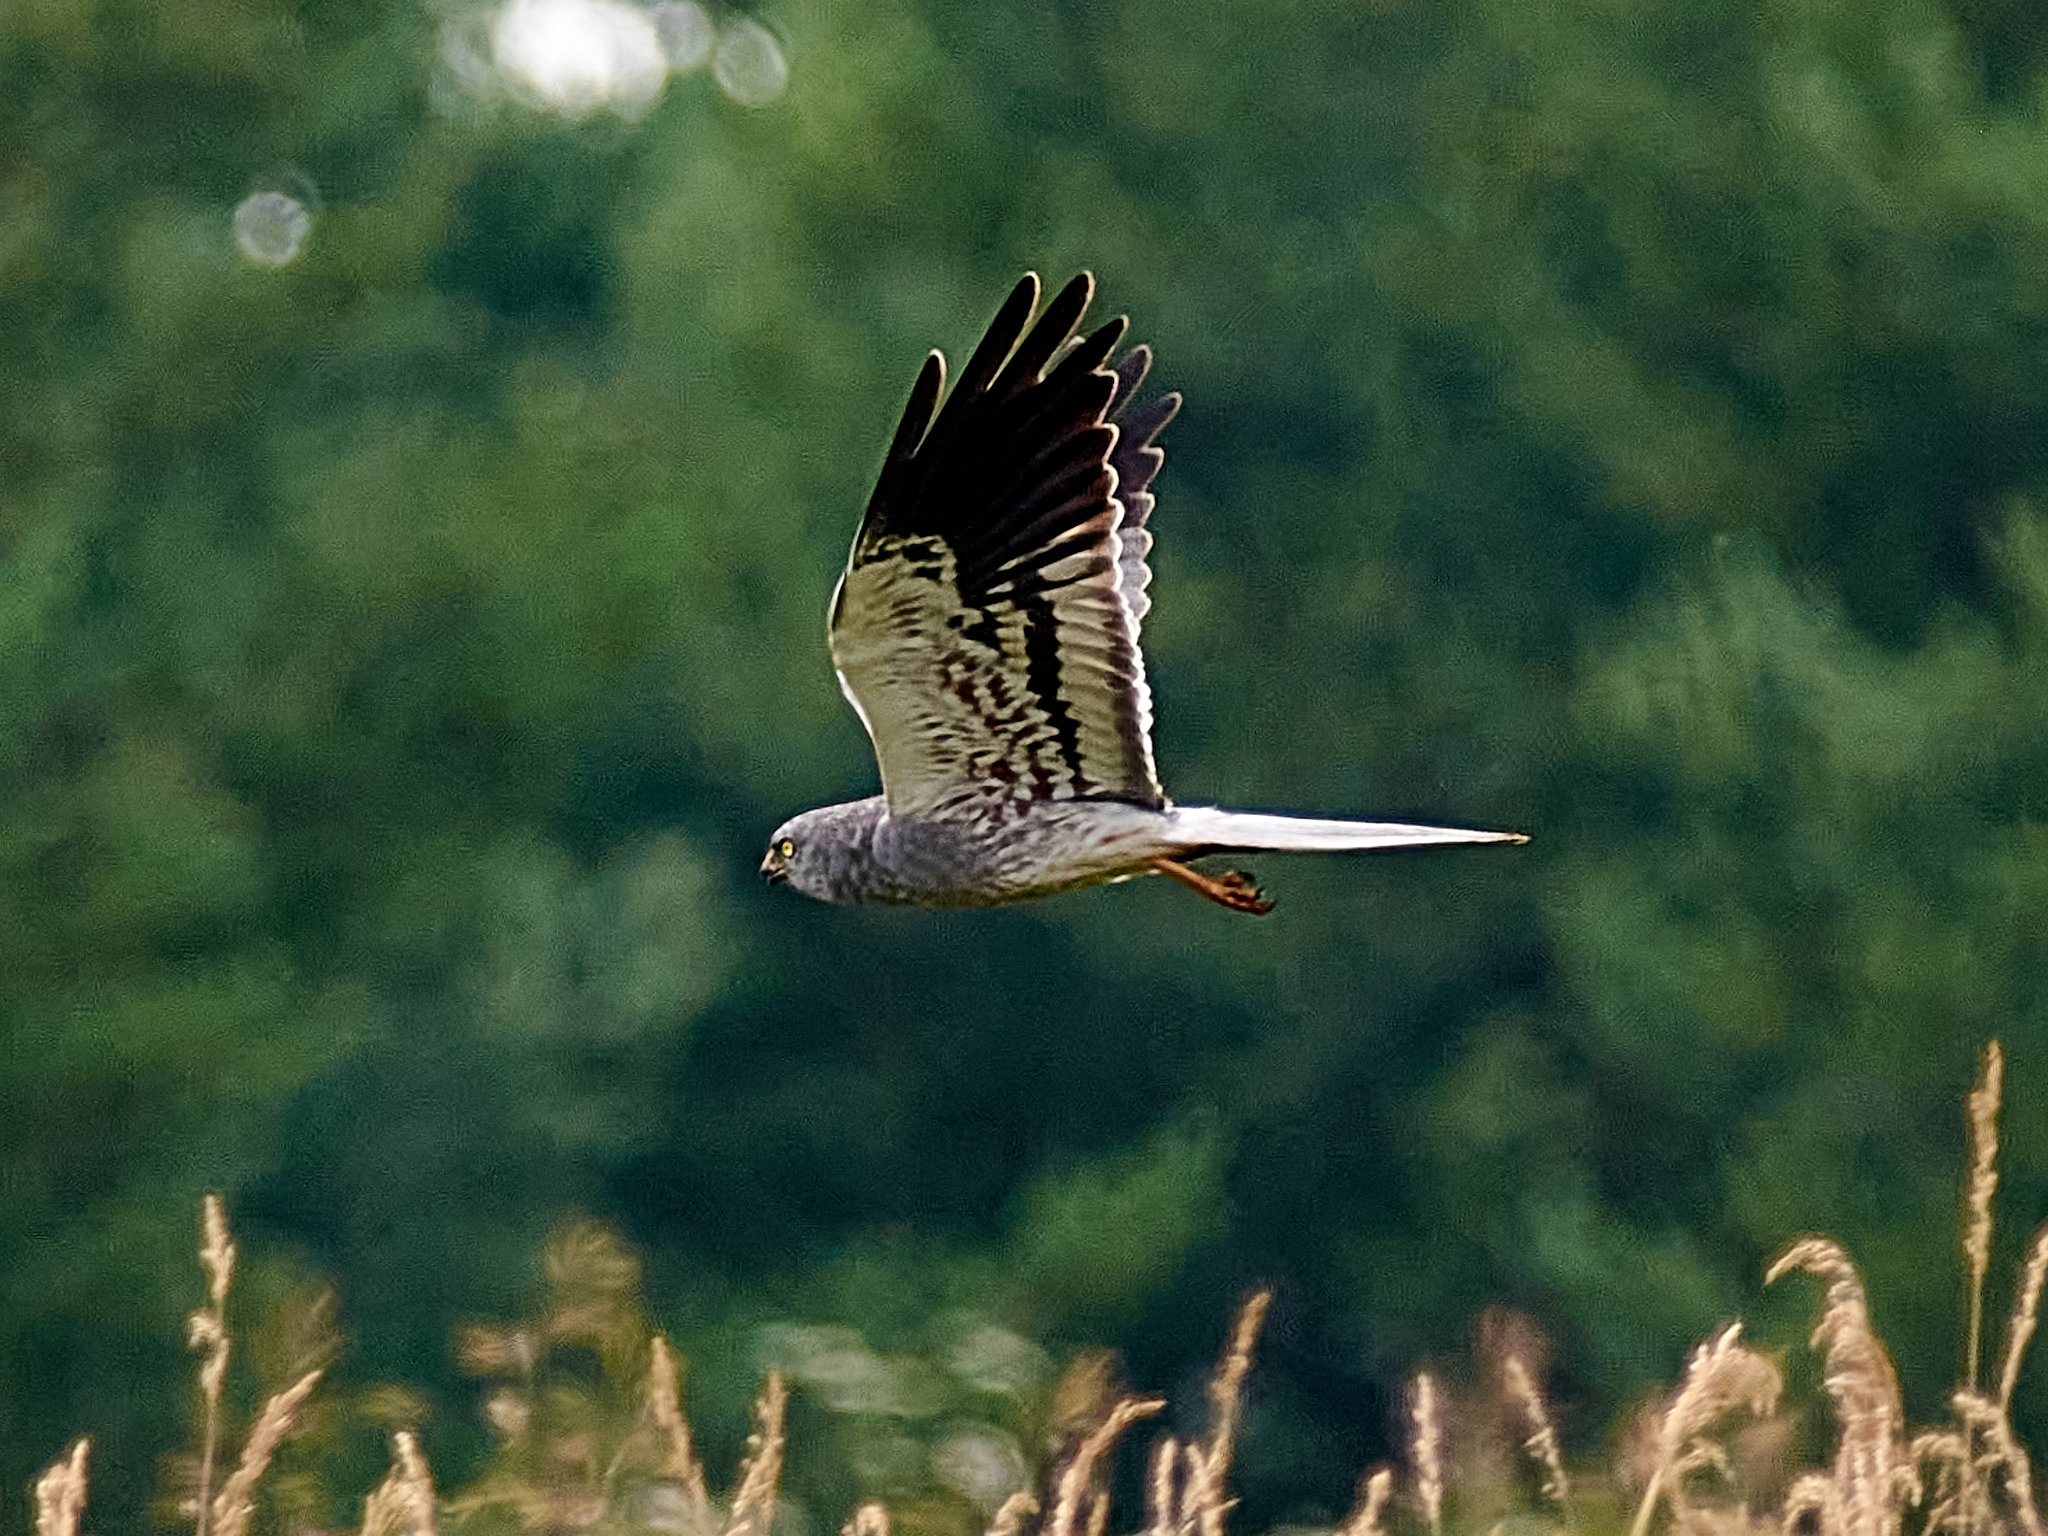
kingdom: Animalia
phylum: Chordata
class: Aves
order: Accipitriformes
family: Accipitridae
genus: Circus
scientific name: Circus pygargus
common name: Montagu's harrier
